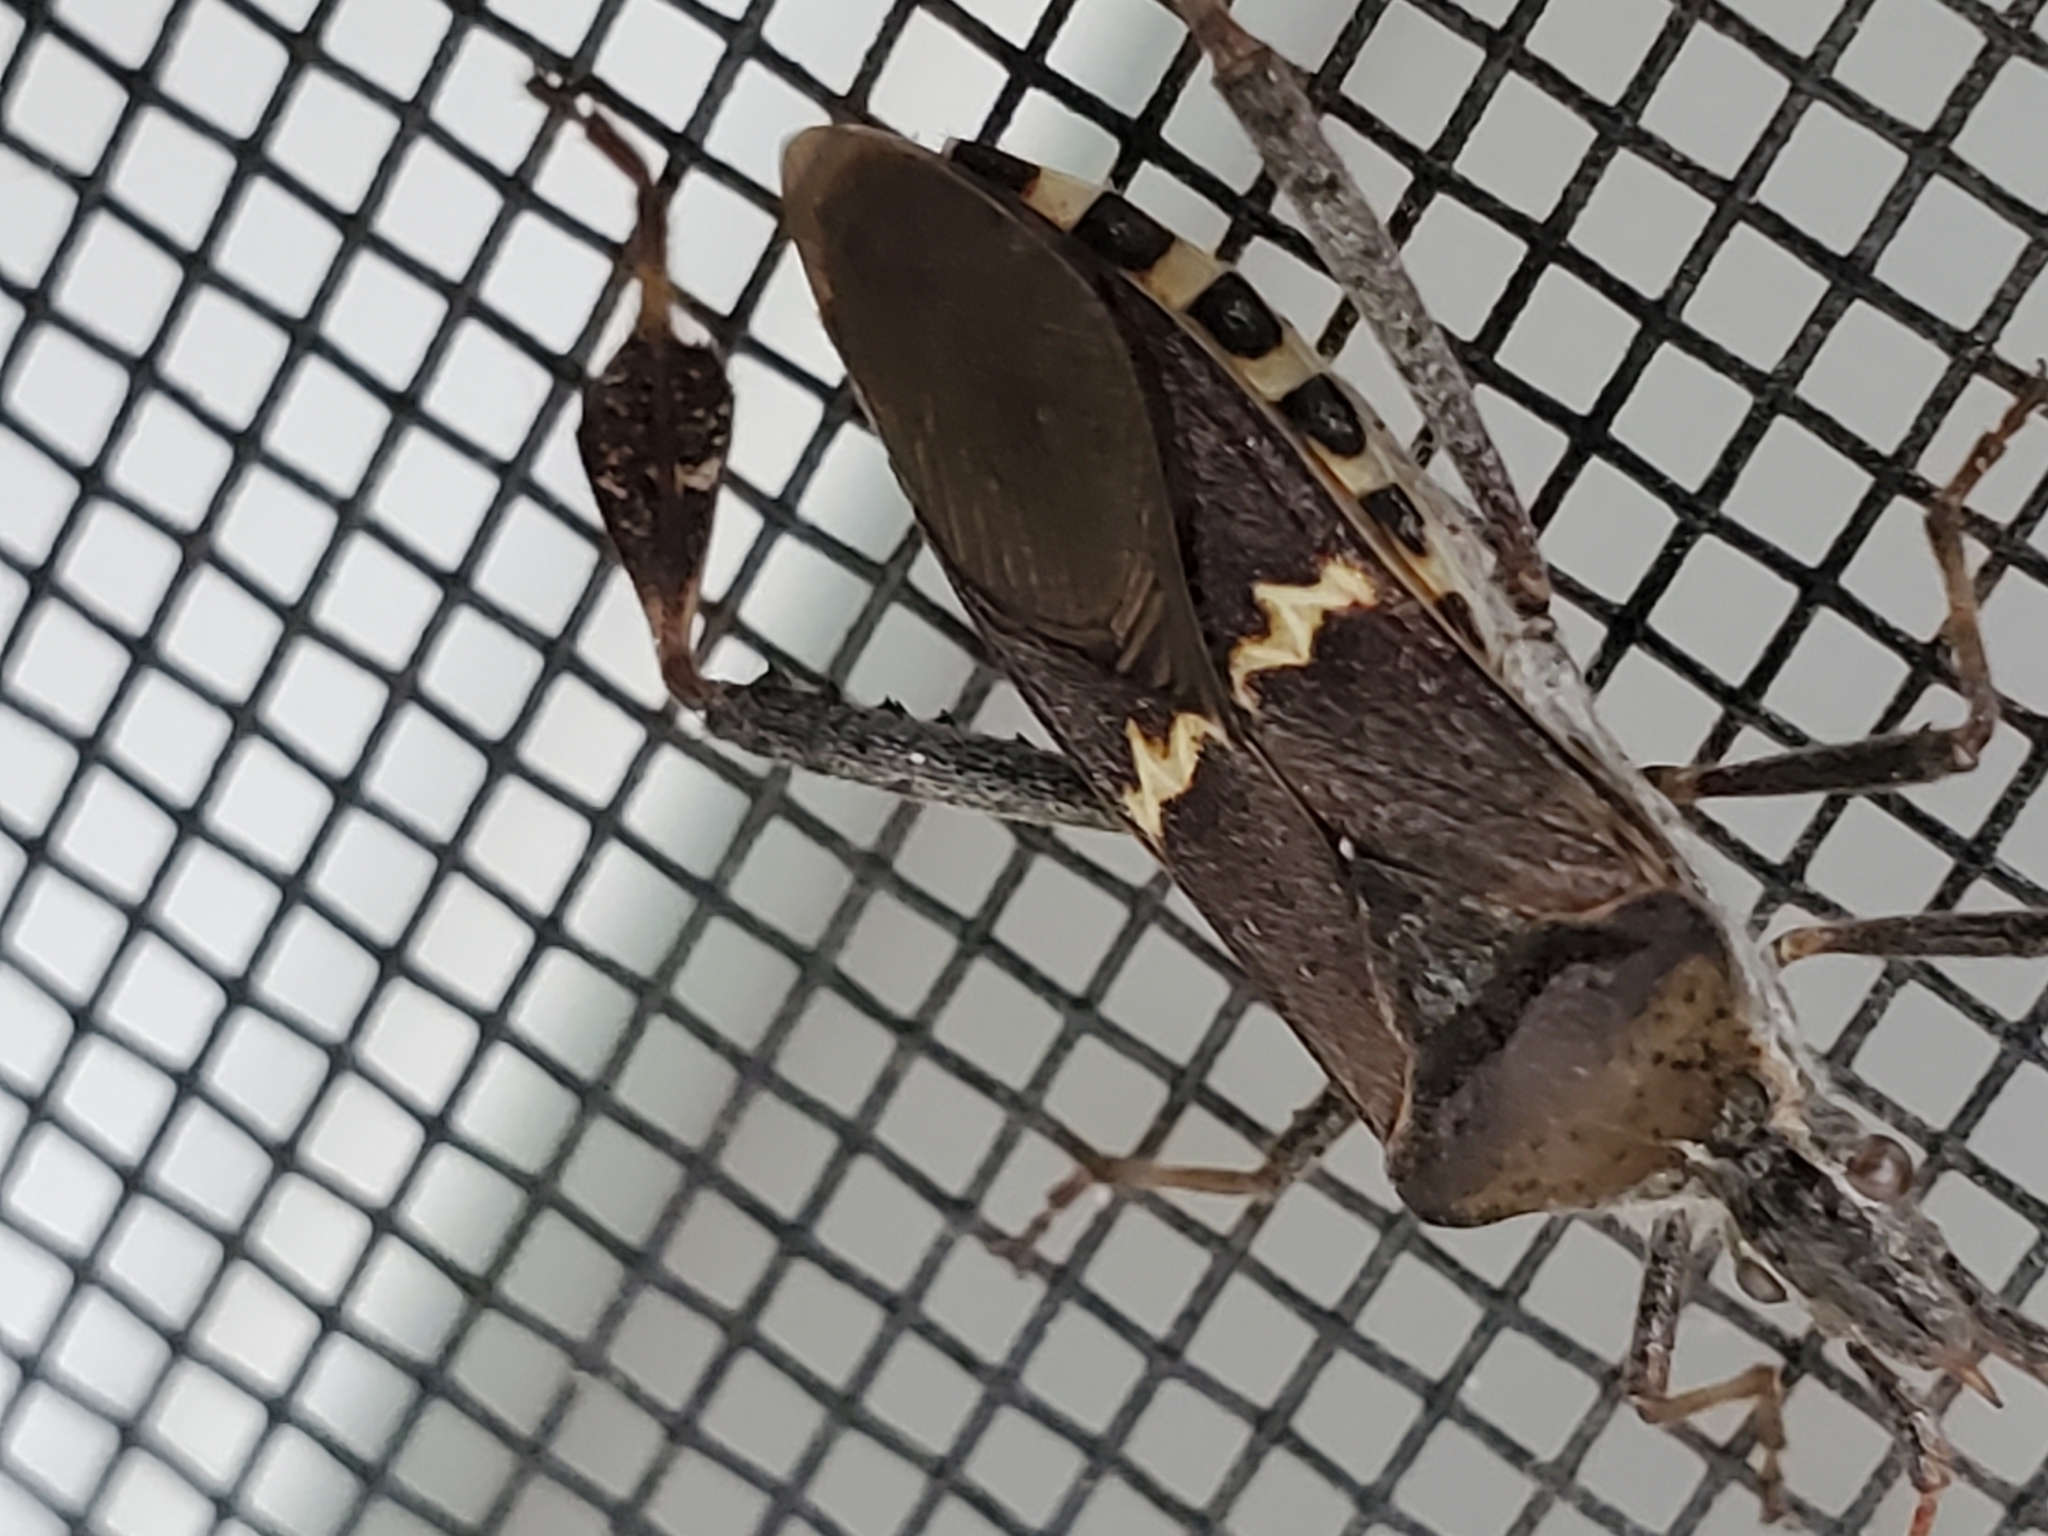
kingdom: Animalia
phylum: Arthropoda
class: Insecta
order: Hemiptera
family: Coreidae
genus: Leptoglossus
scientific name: Leptoglossus clypealis
